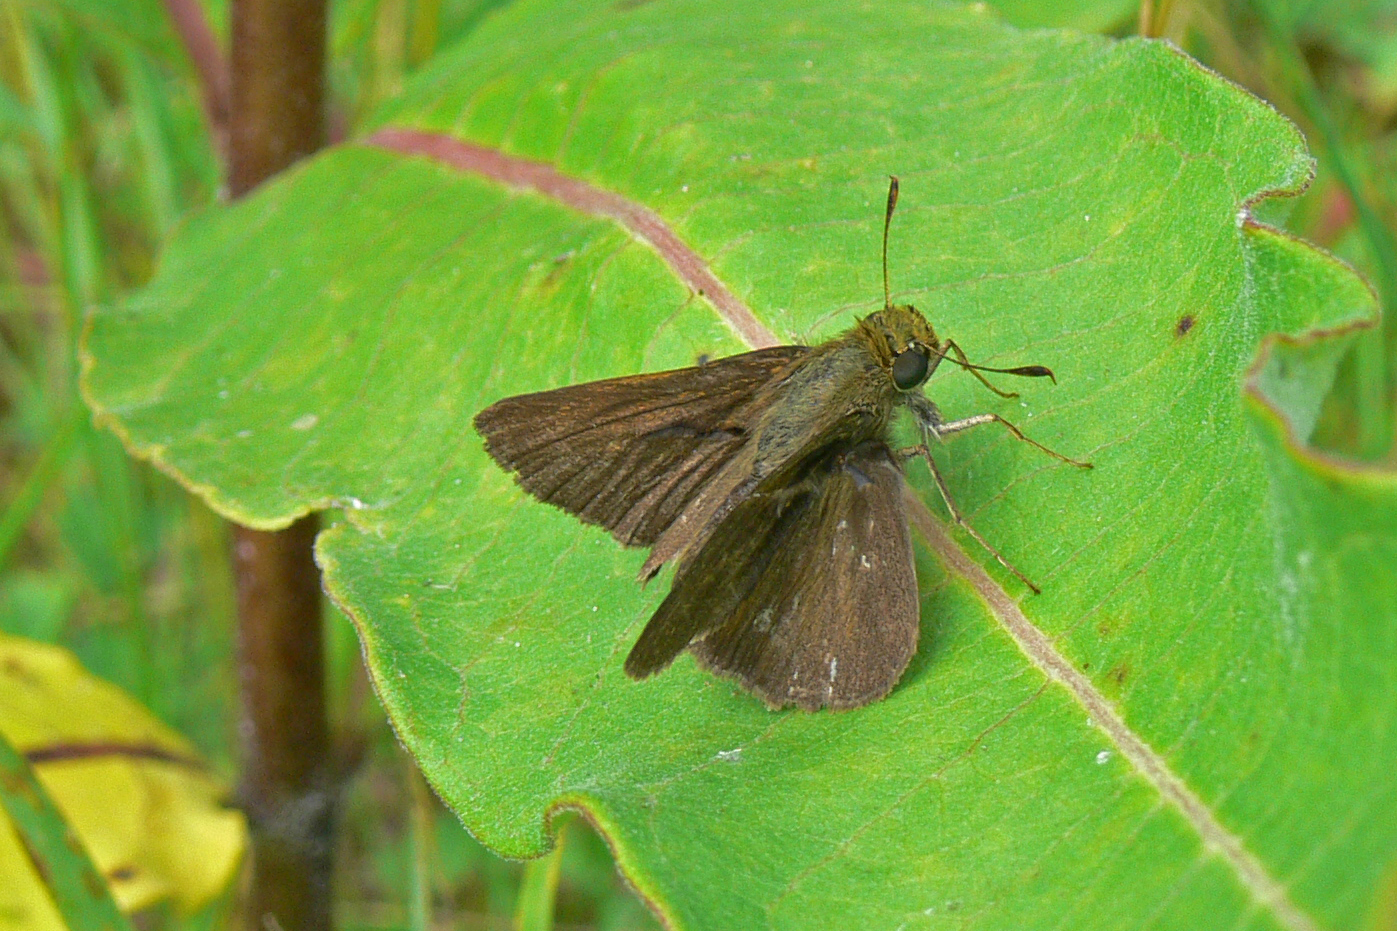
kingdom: Animalia
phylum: Arthropoda
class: Insecta
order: Lepidoptera
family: Hesperiidae
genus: Euphyes
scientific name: Euphyes vestris
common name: Dun skipper
